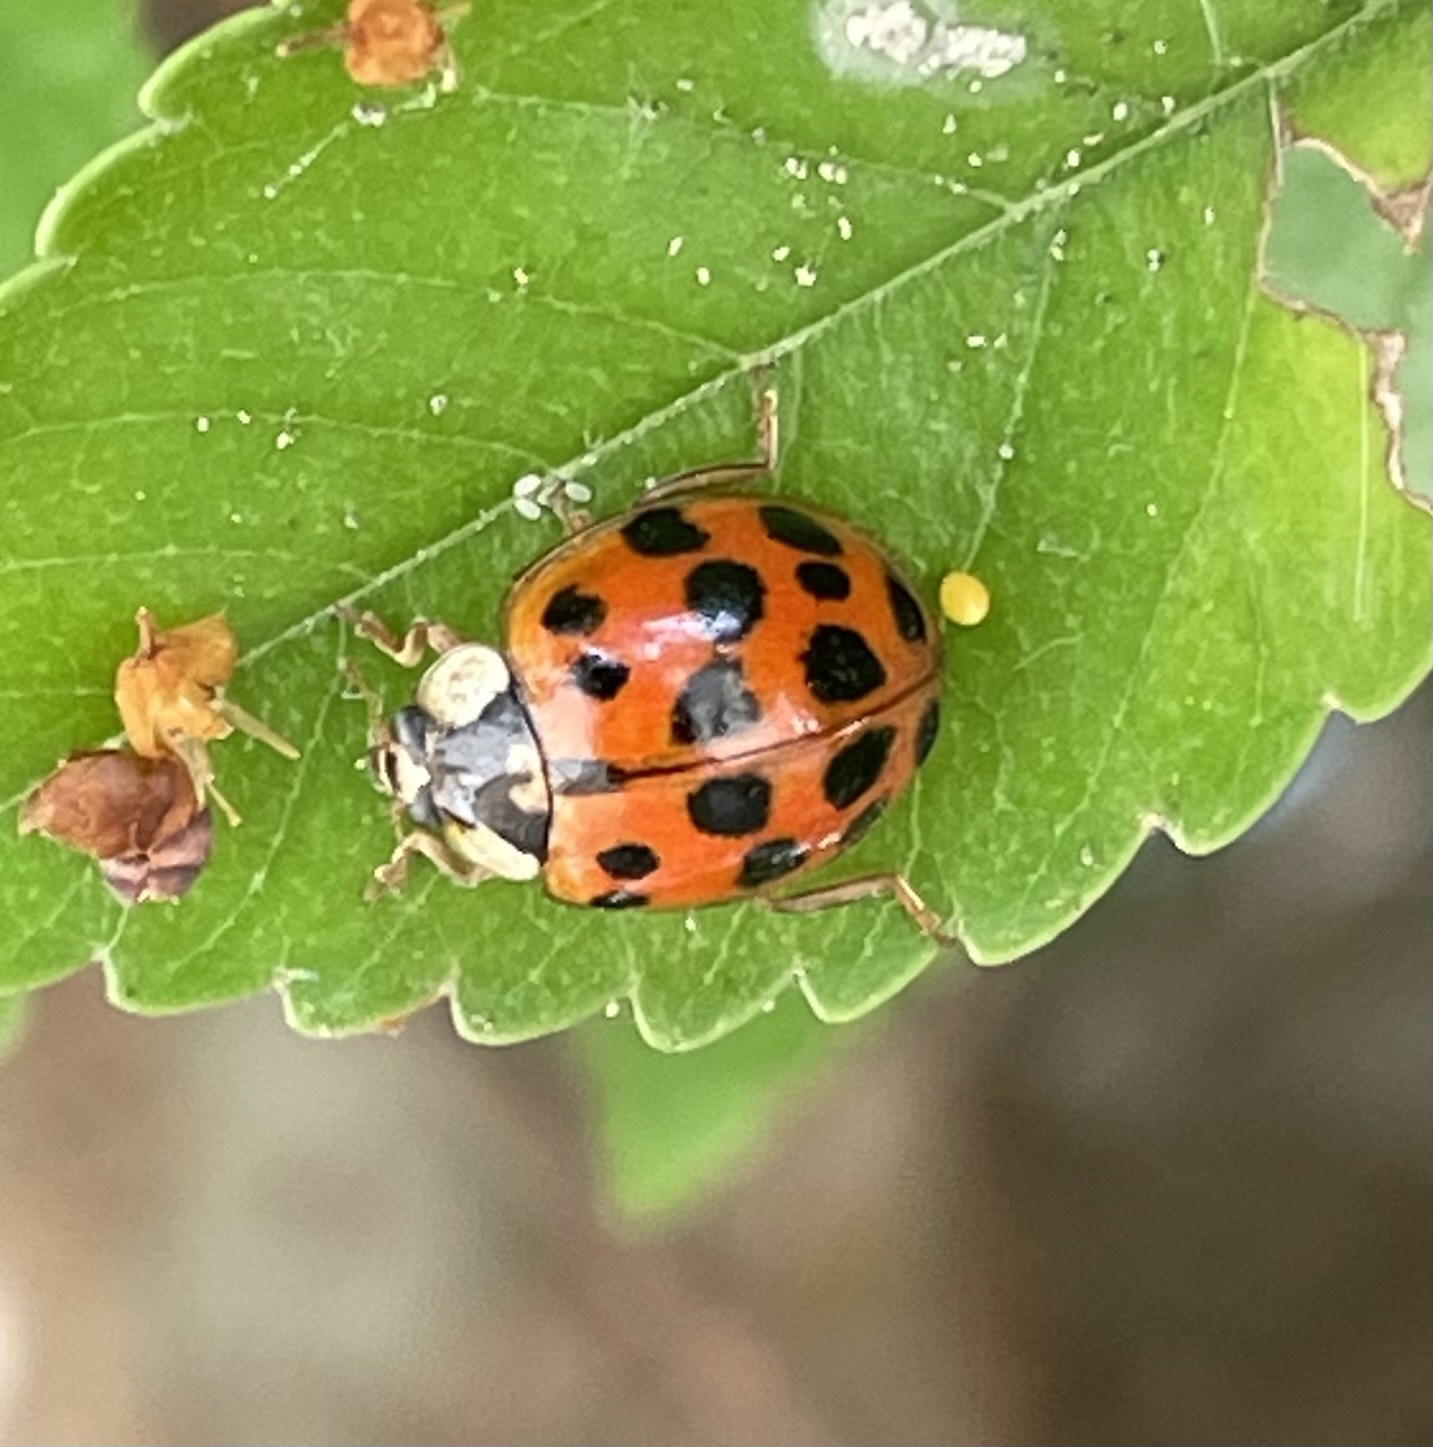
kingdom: Animalia
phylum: Arthropoda
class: Insecta
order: Coleoptera
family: Coccinellidae
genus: Harmonia
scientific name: Harmonia axyridis
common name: Harlequin ladybird
